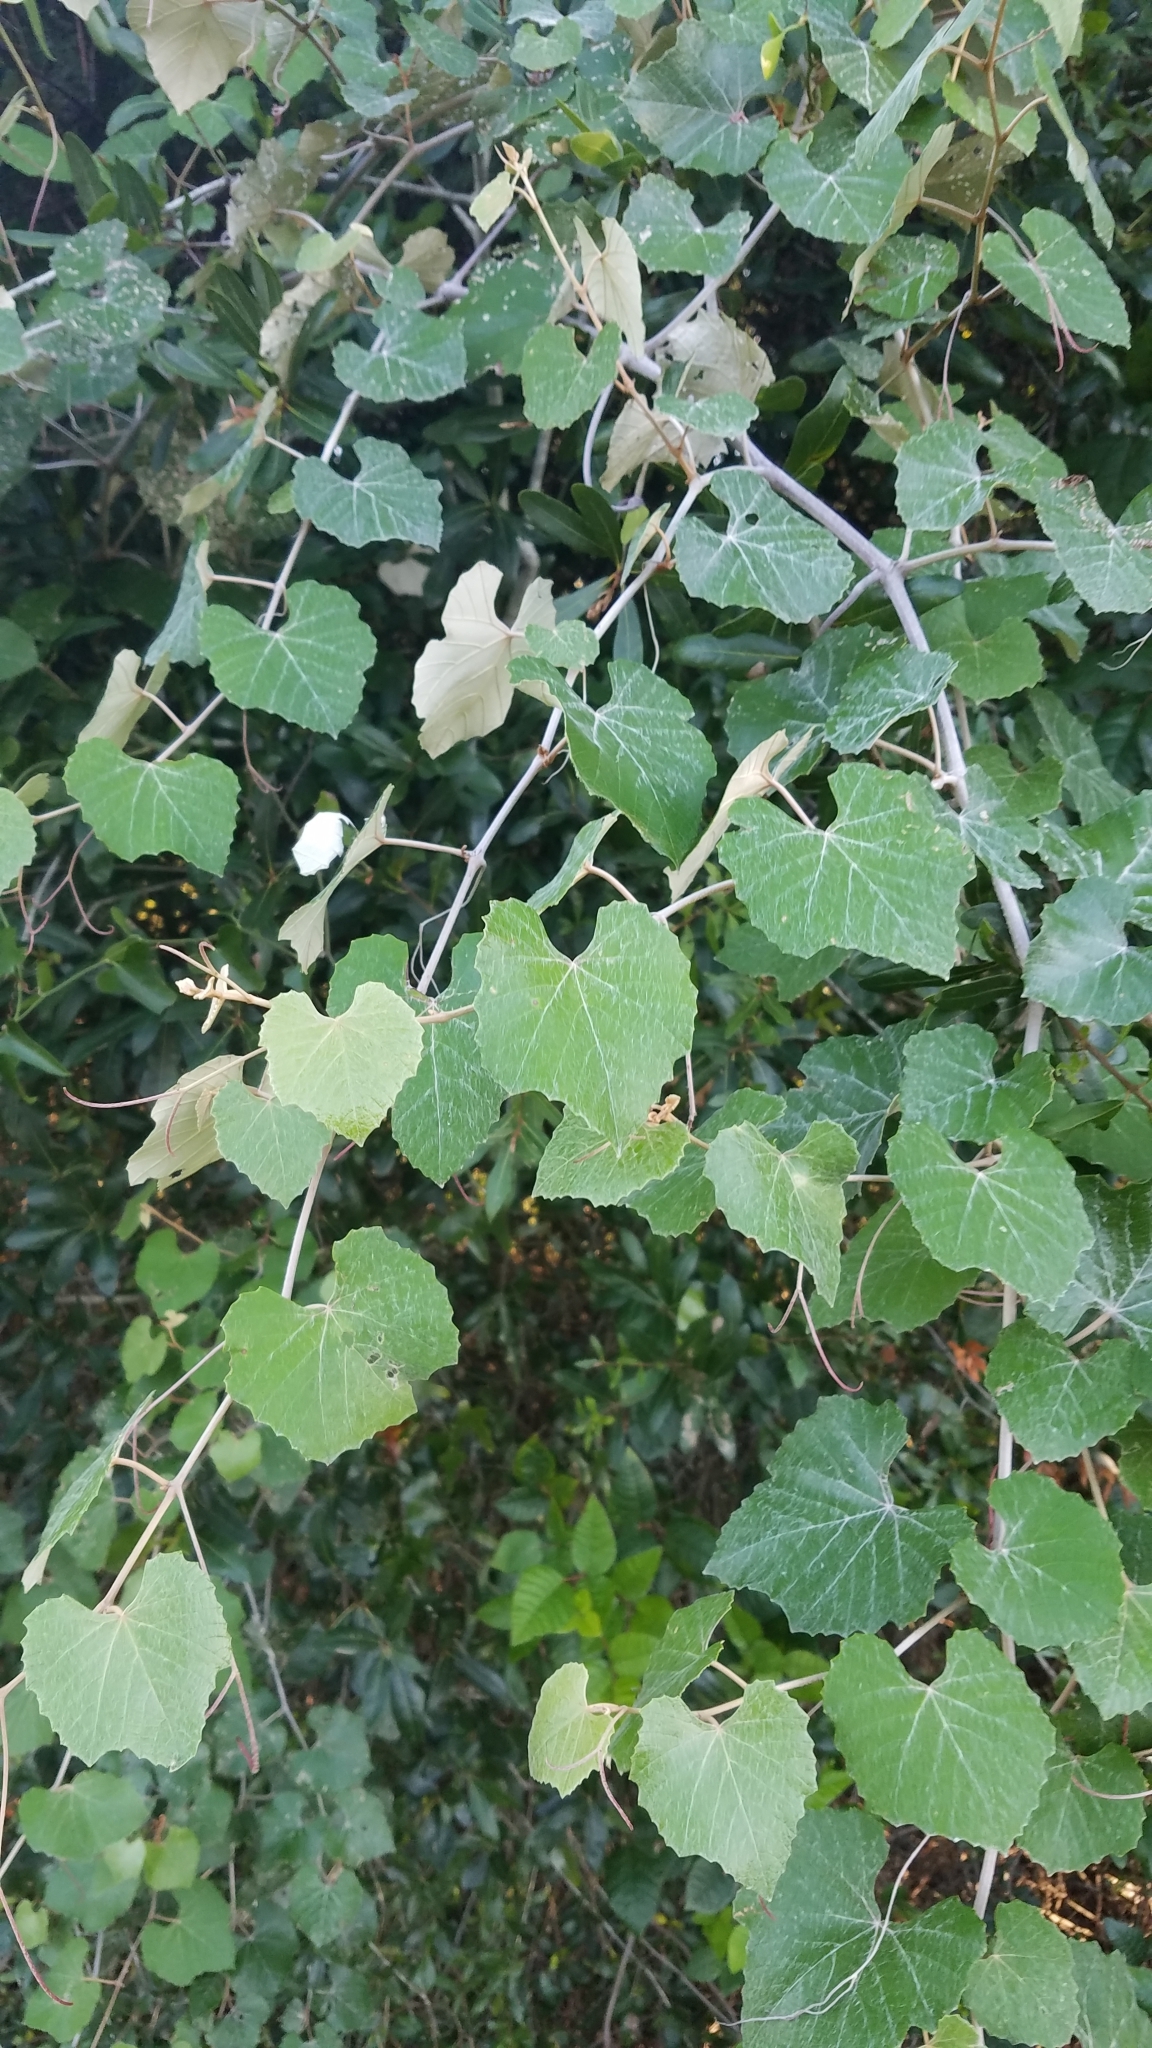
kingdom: Plantae
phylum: Tracheophyta
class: Magnoliopsida
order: Vitales
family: Vitaceae
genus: Vitis
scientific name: Vitis shuttleworthii
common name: Caloosa grape
